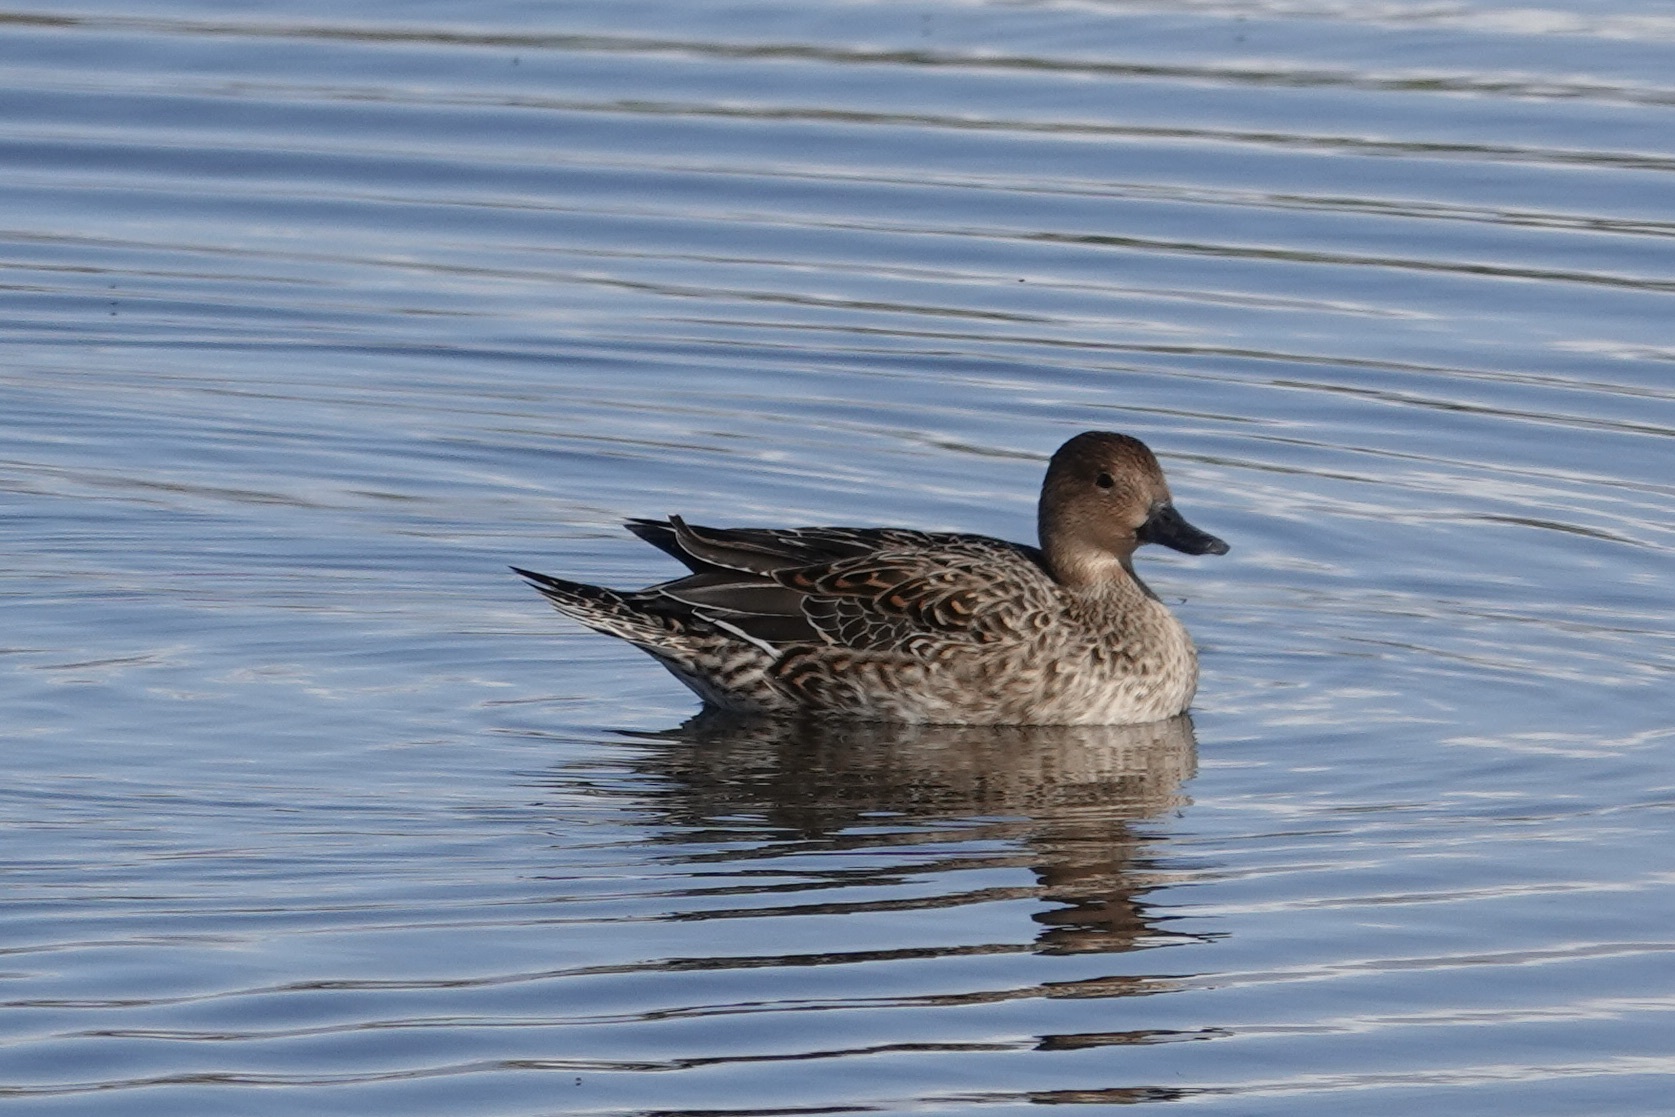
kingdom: Animalia
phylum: Chordata
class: Aves
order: Anseriformes
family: Anatidae
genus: Anas
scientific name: Anas acuta
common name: Northern pintail
